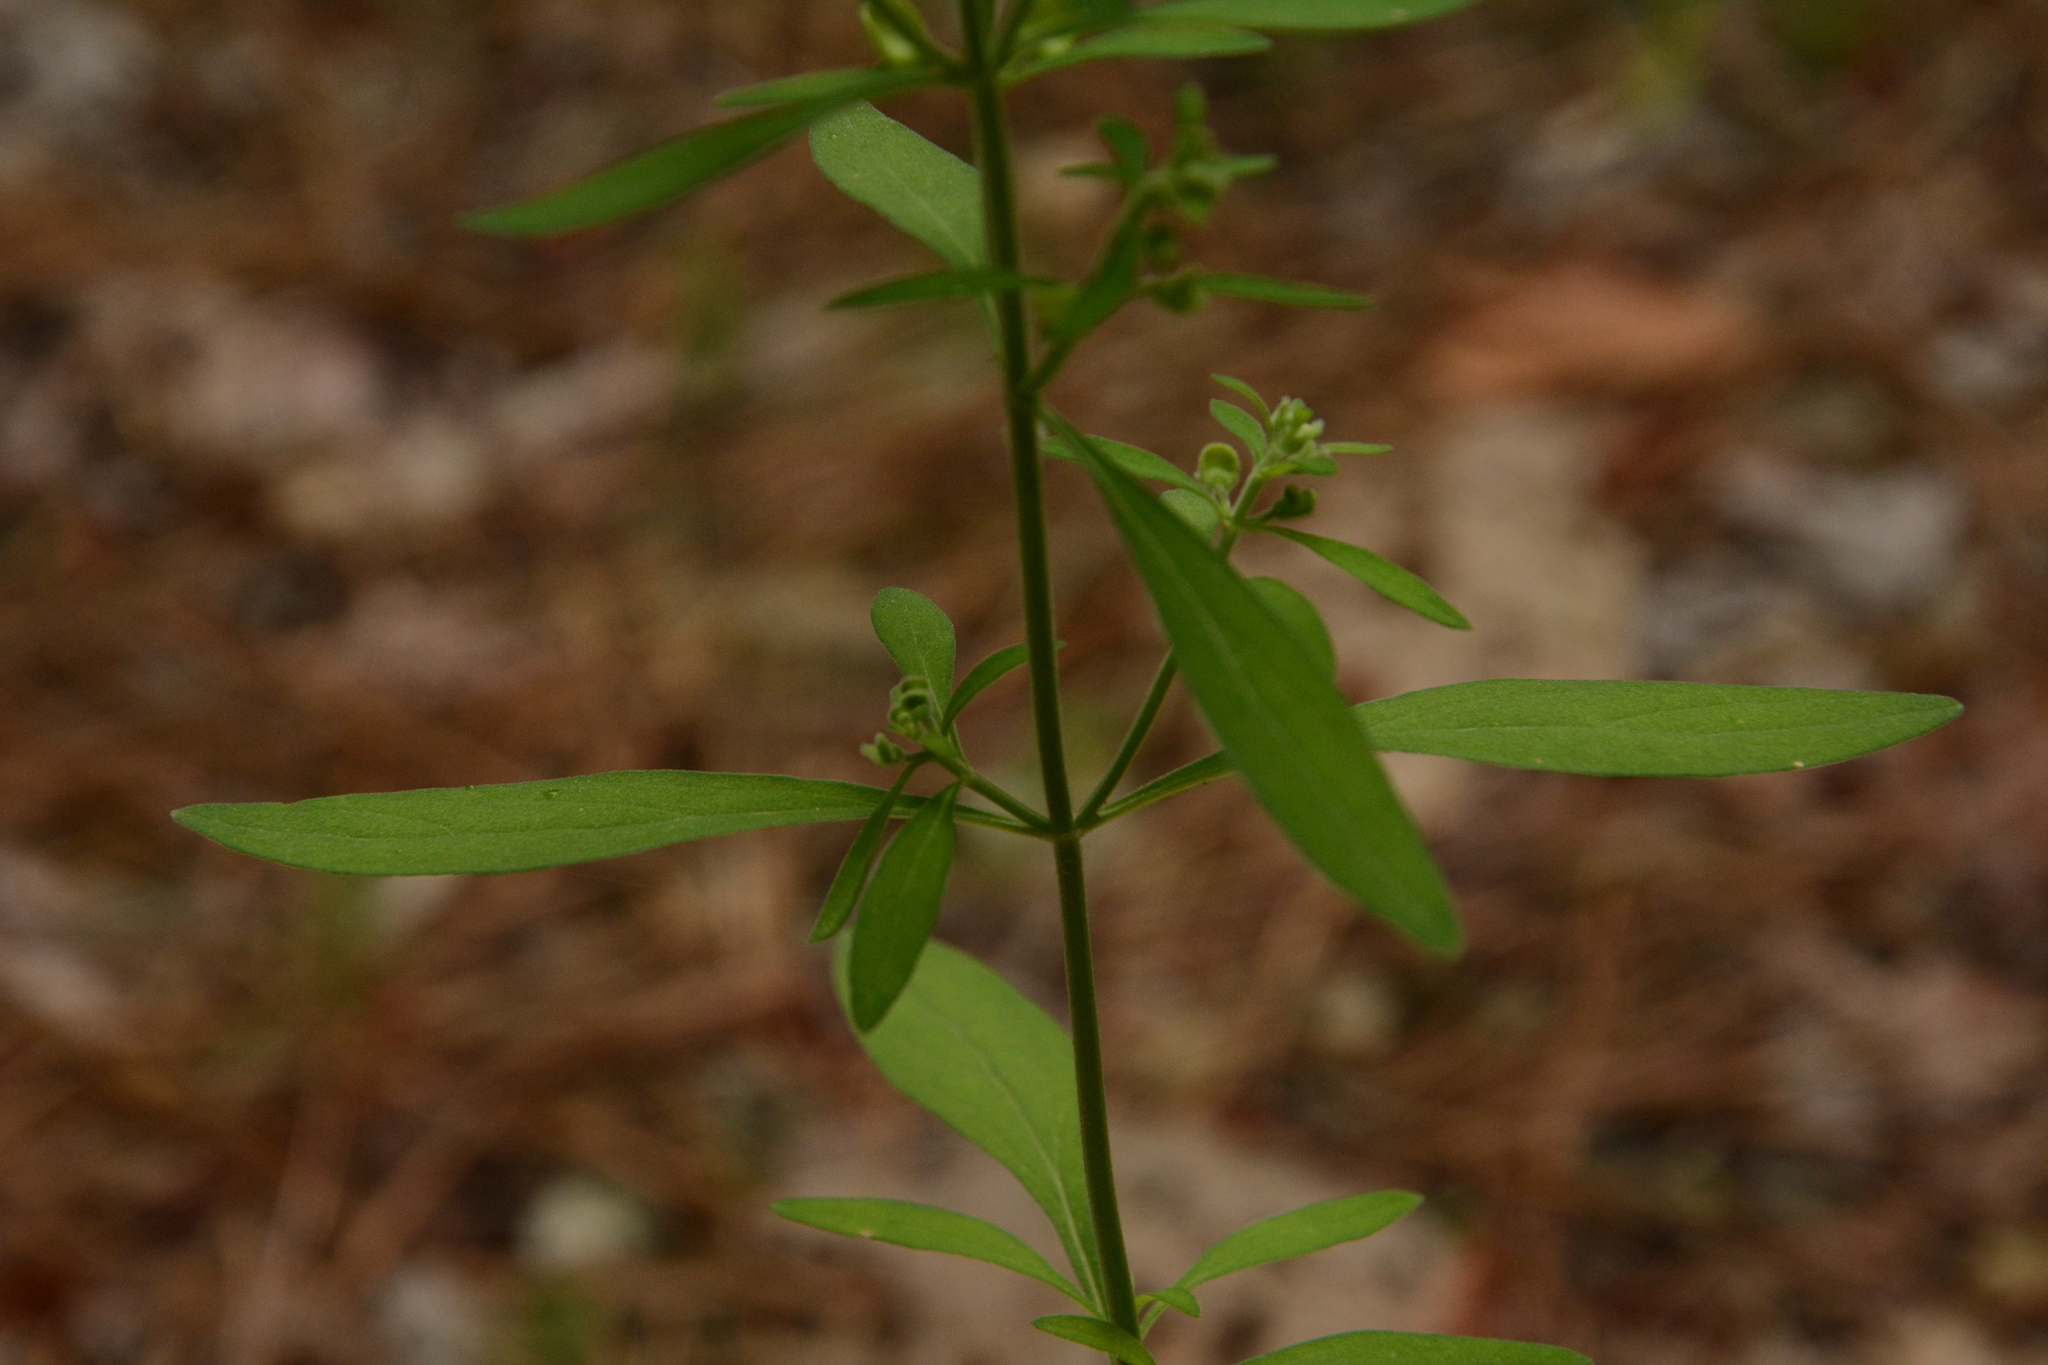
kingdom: Plantae
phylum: Tracheophyta
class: Magnoliopsida
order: Lamiales
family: Lamiaceae
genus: Scutellaria
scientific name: Scutellaria integrifolia
